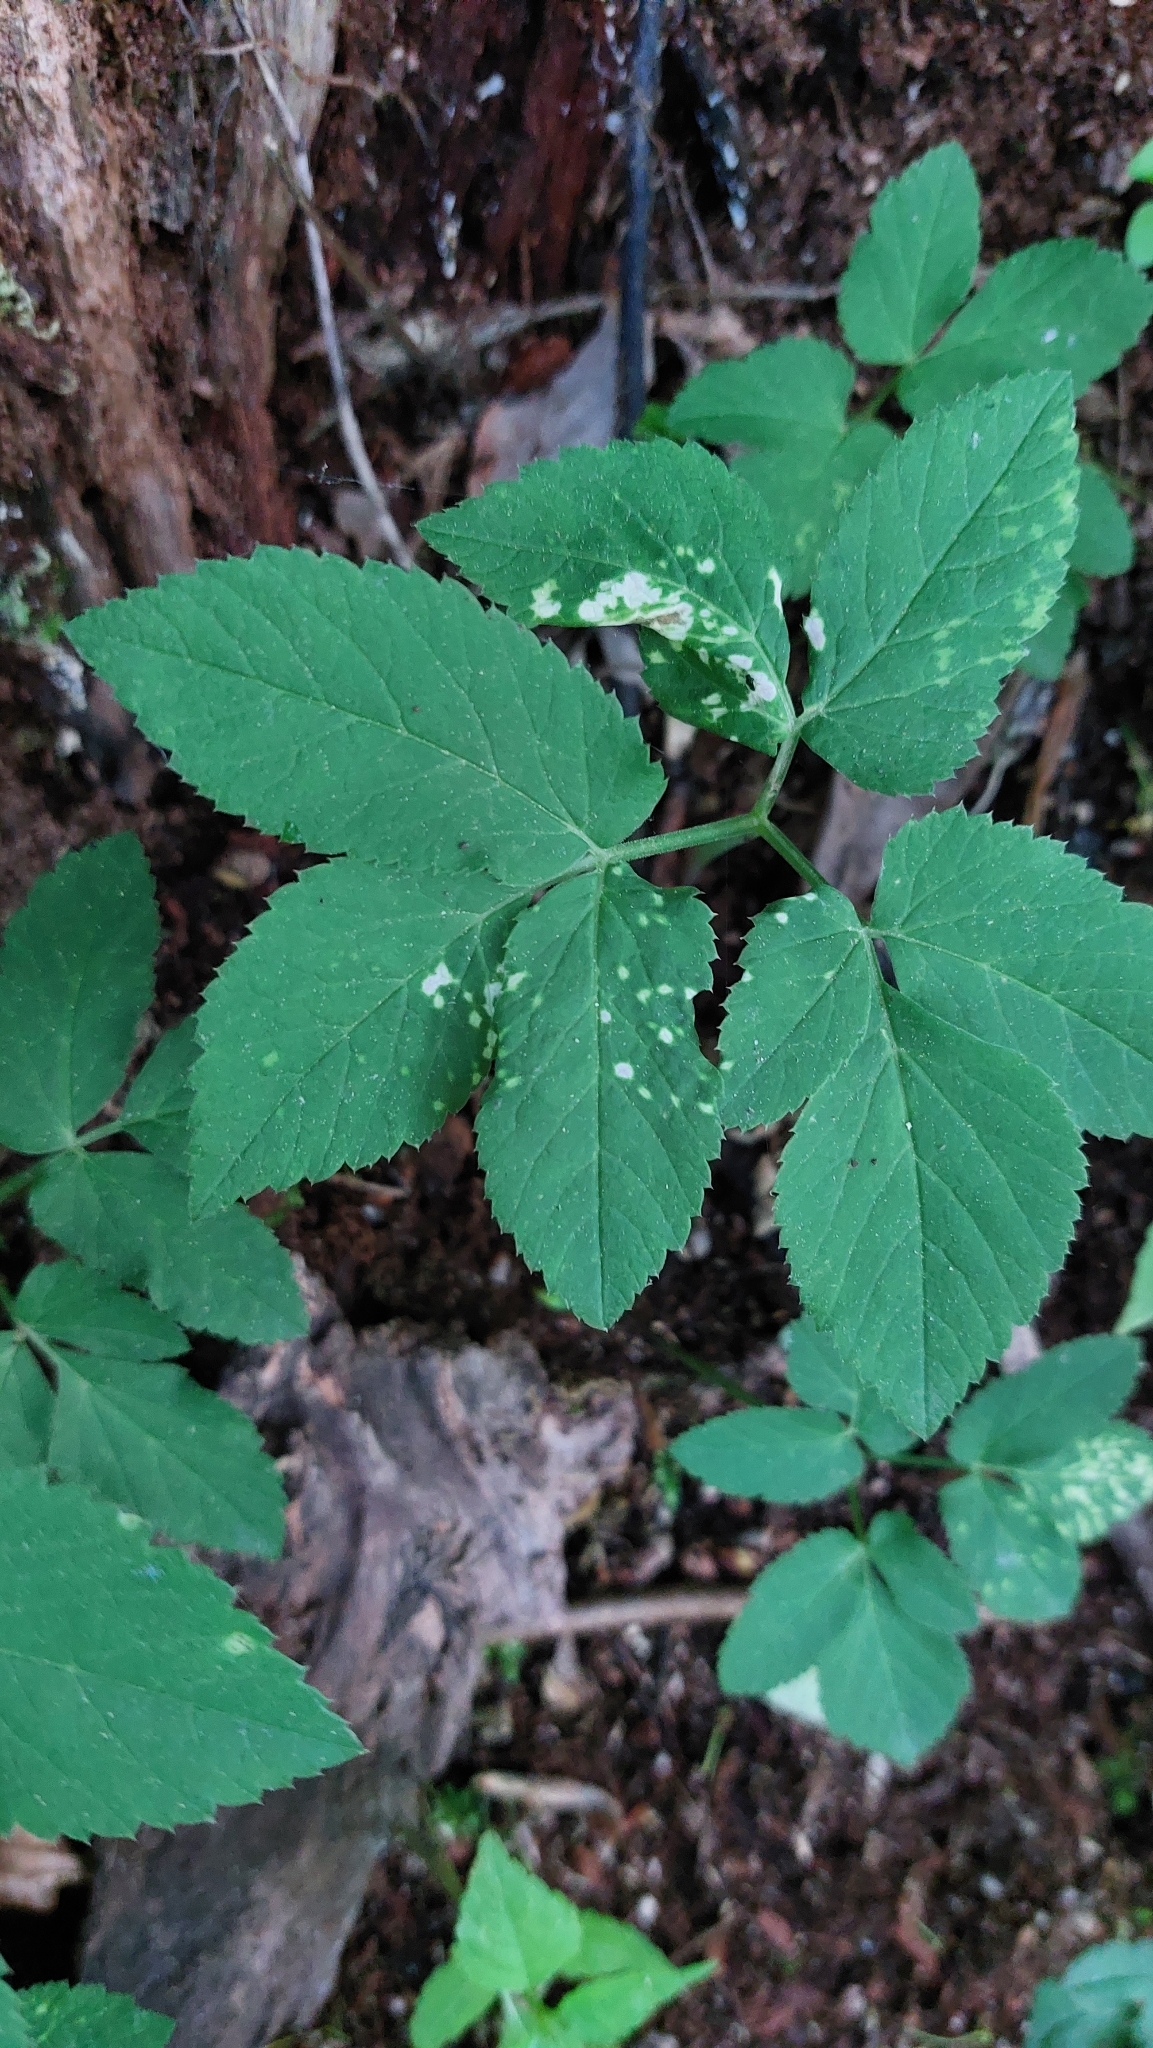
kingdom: Plantae
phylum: Tracheophyta
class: Magnoliopsida
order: Apiales
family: Apiaceae
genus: Aegopodium
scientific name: Aegopodium podagraria
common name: Ground-elder
